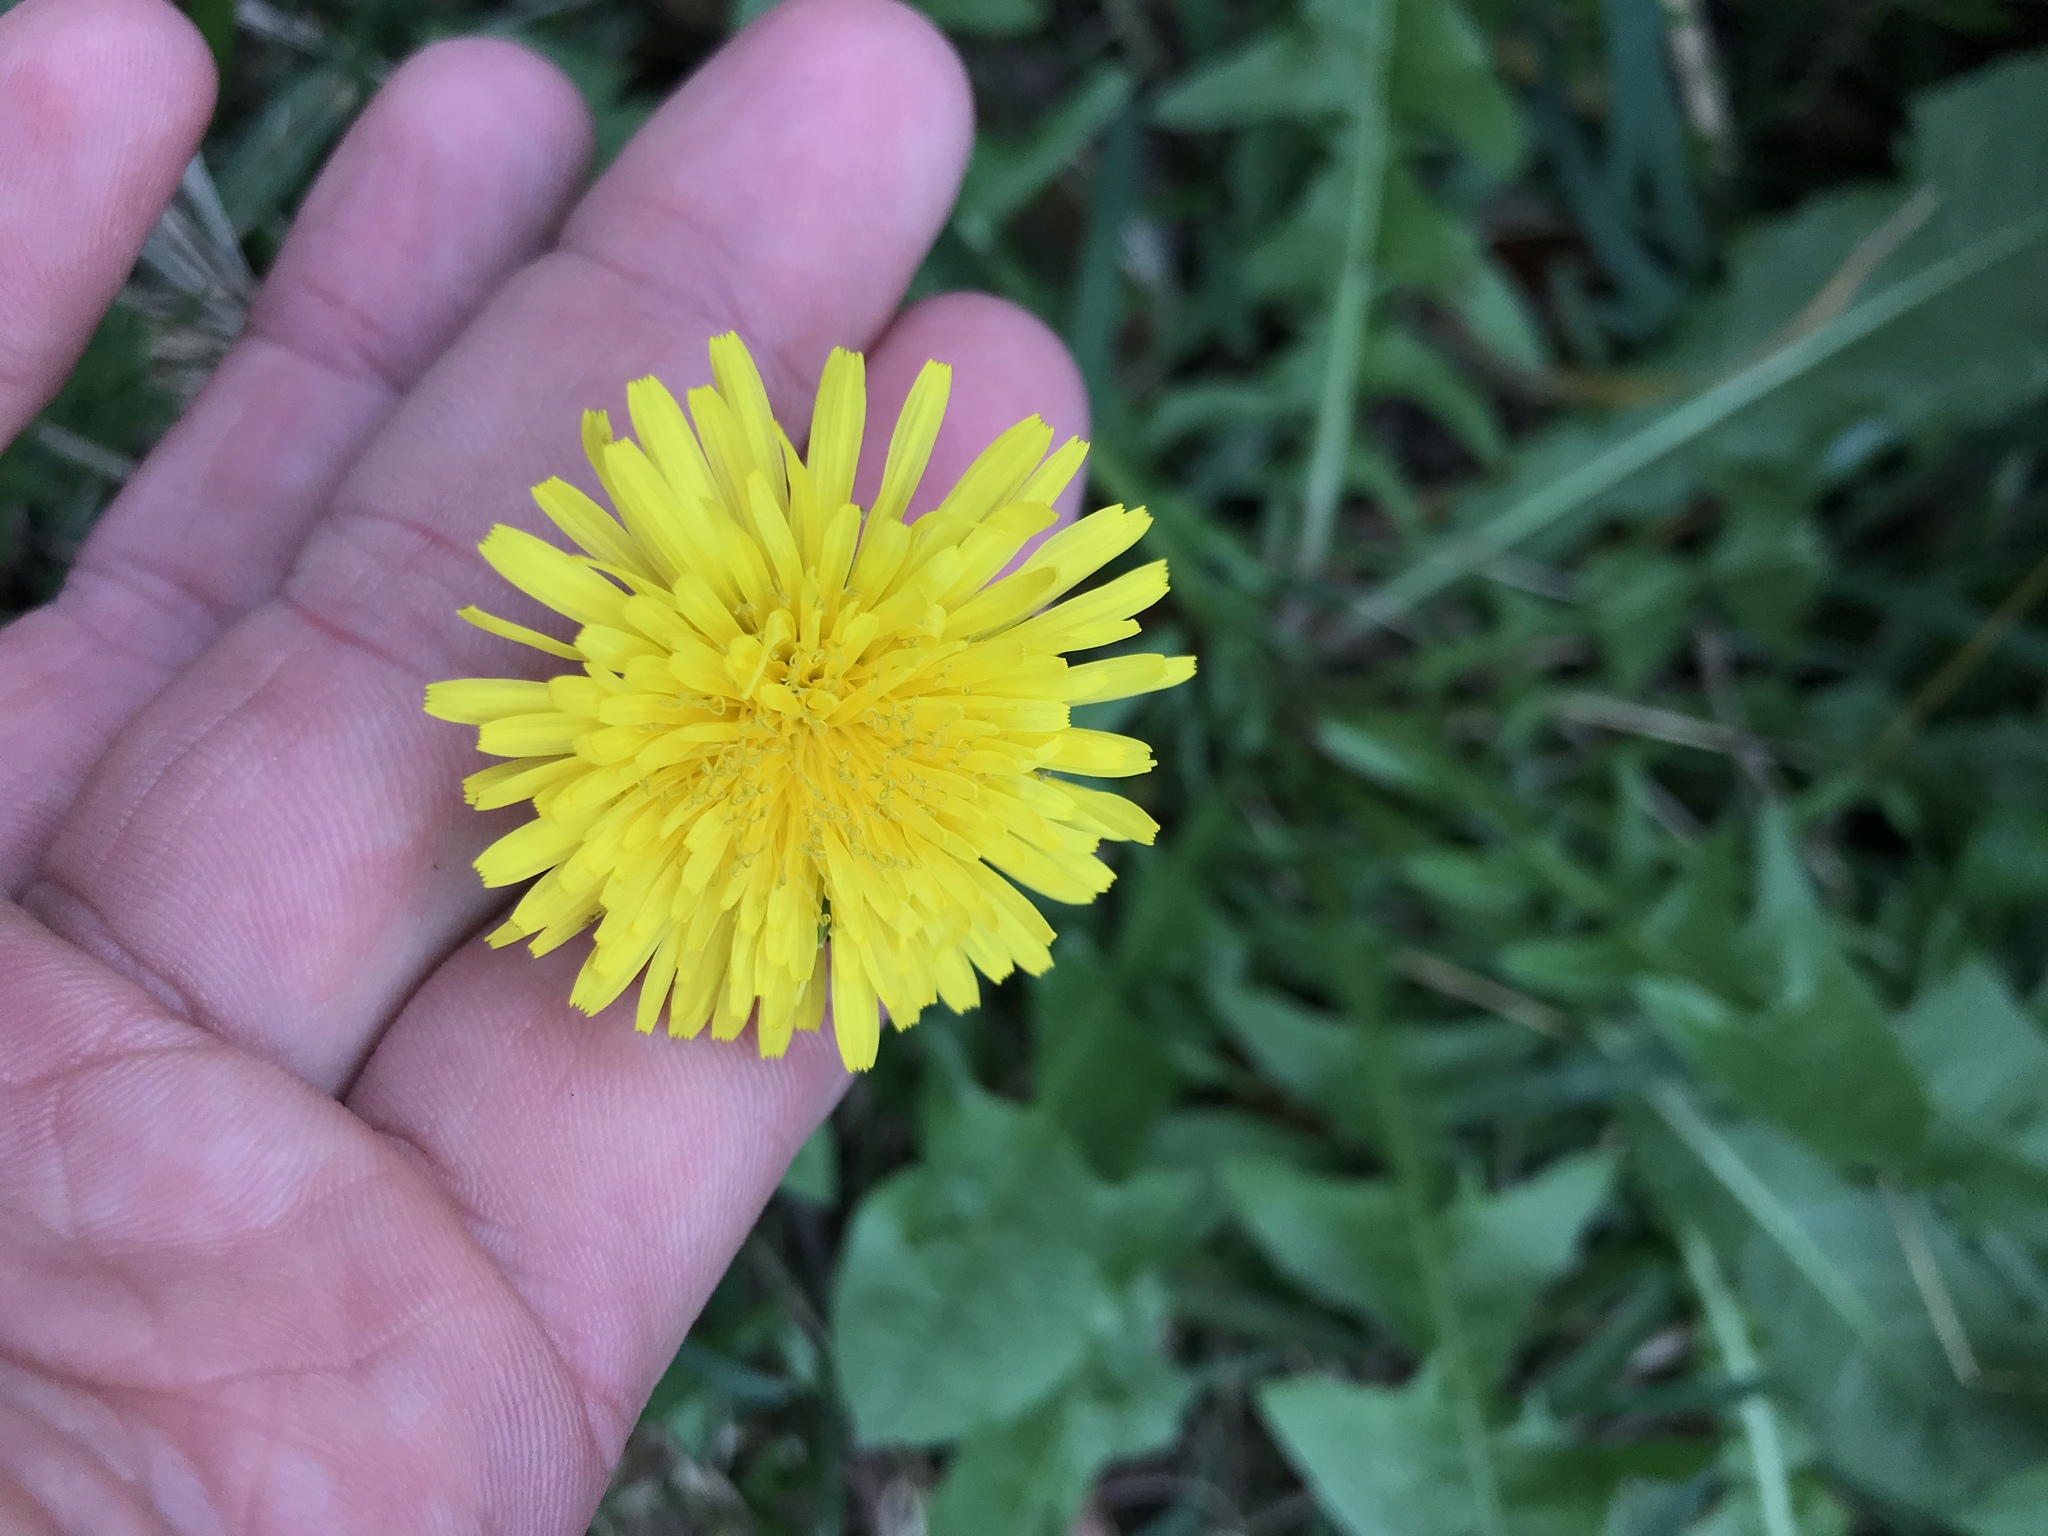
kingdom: Plantae
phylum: Tracheophyta
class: Magnoliopsida
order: Asterales
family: Asteraceae
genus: Taraxacum
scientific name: Taraxacum officinale
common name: Common dandelion
